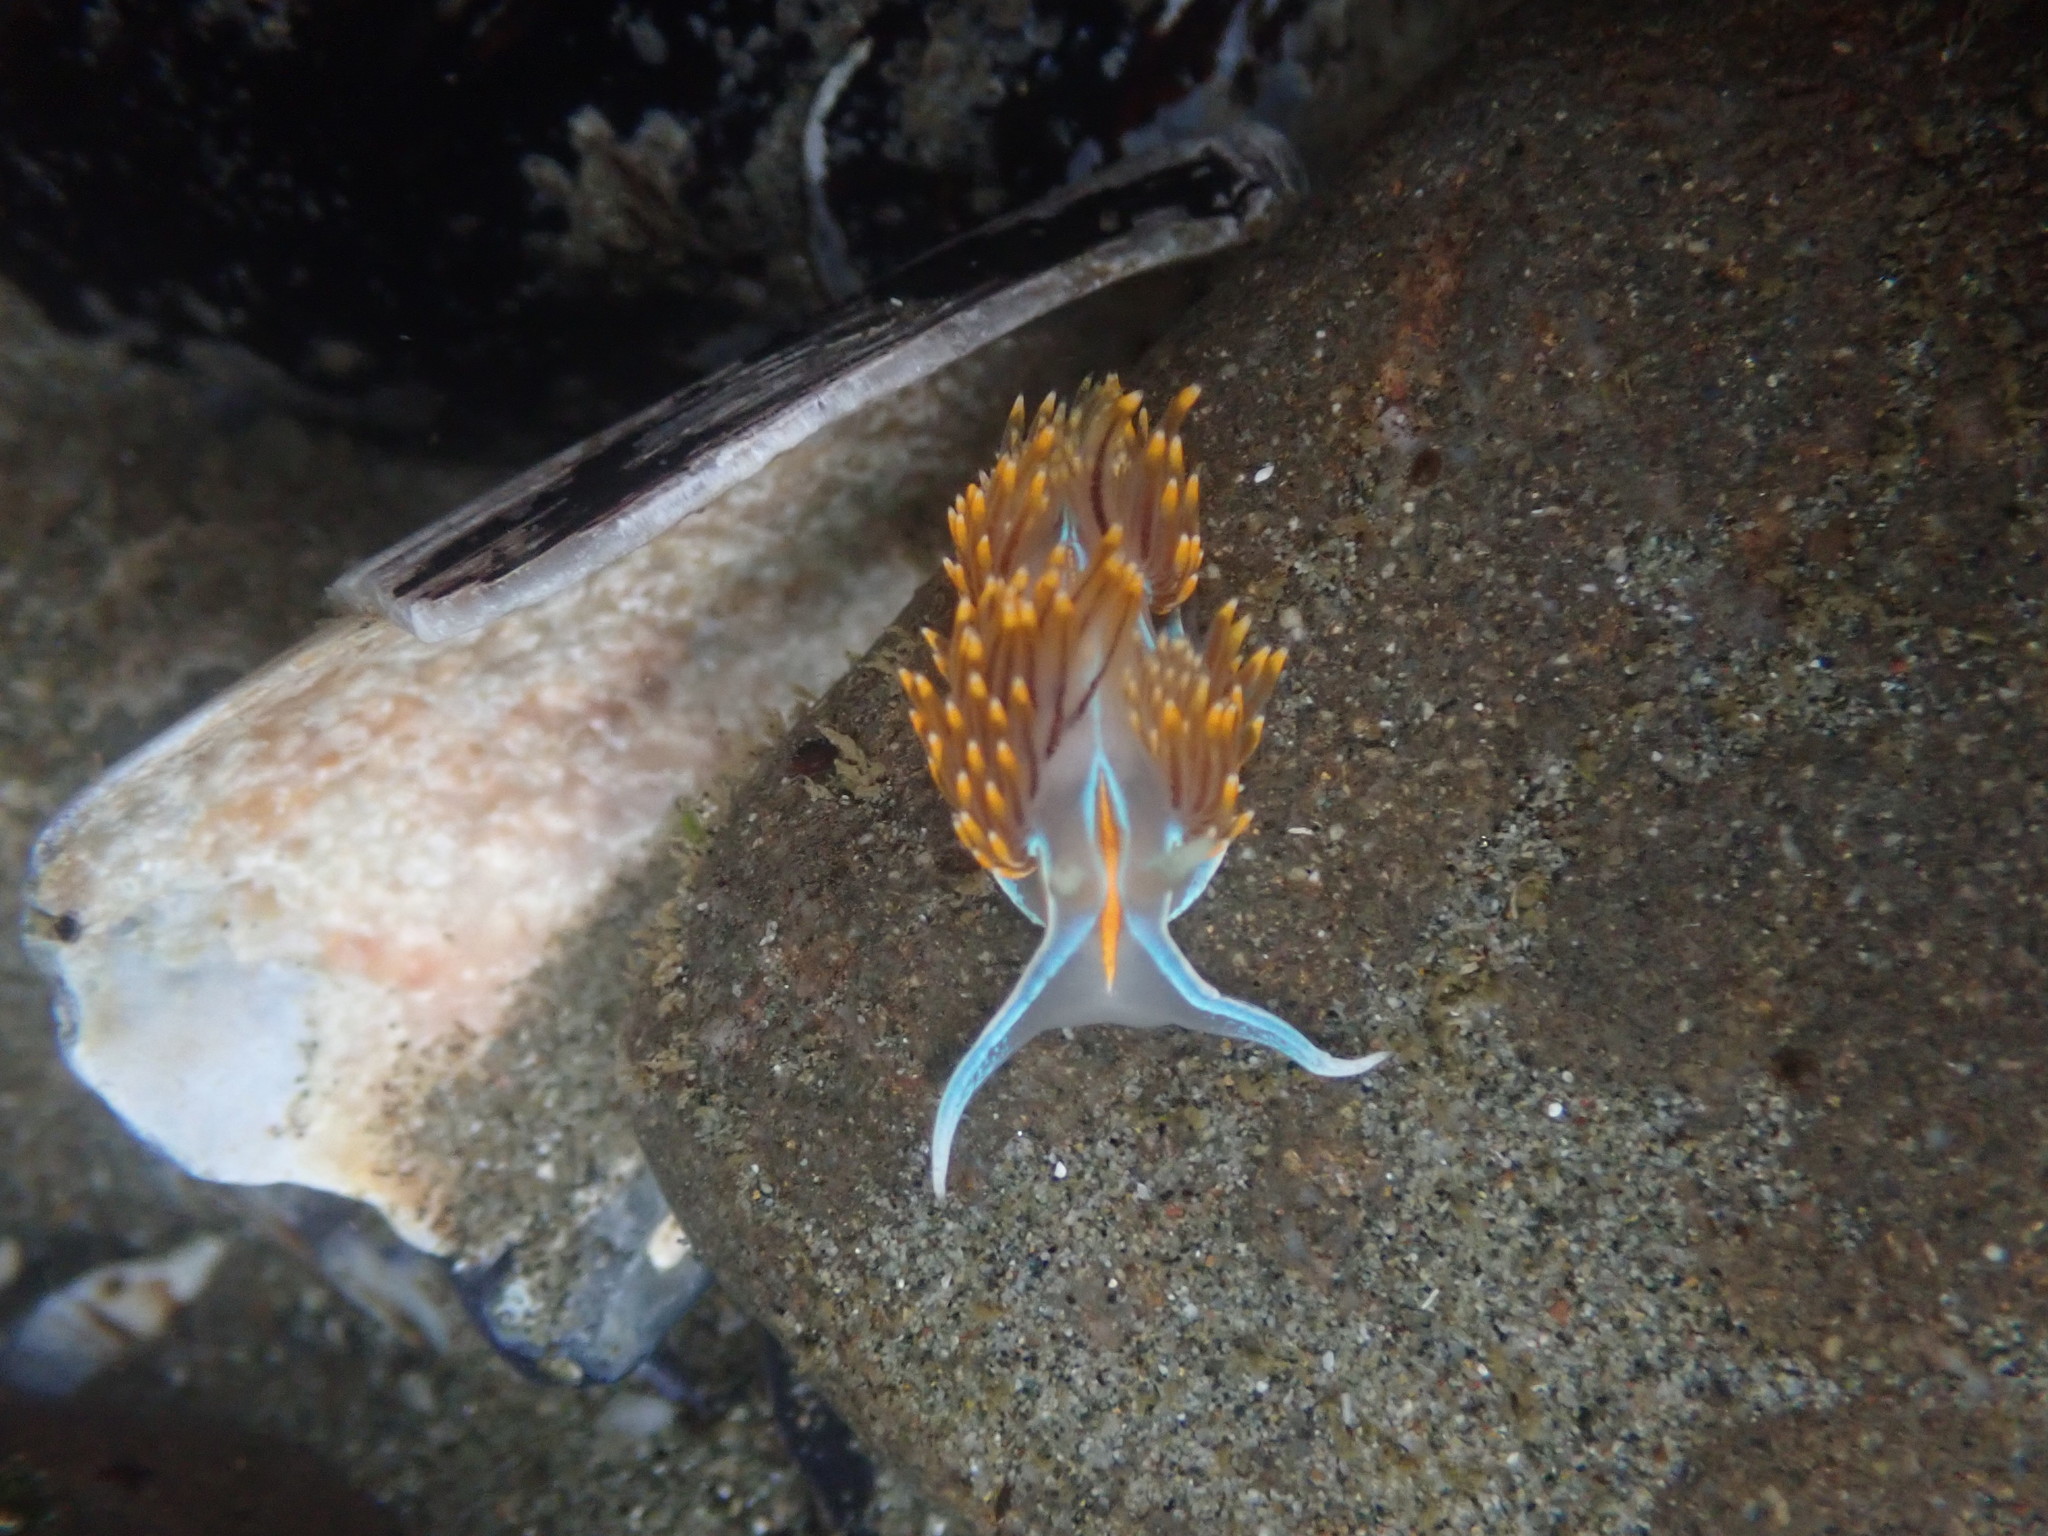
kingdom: Animalia
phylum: Mollusca
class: Gastropoda
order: Nudibranchia
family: Myrrhinidae
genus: Hermissenda
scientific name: Hermissenda opalescens
